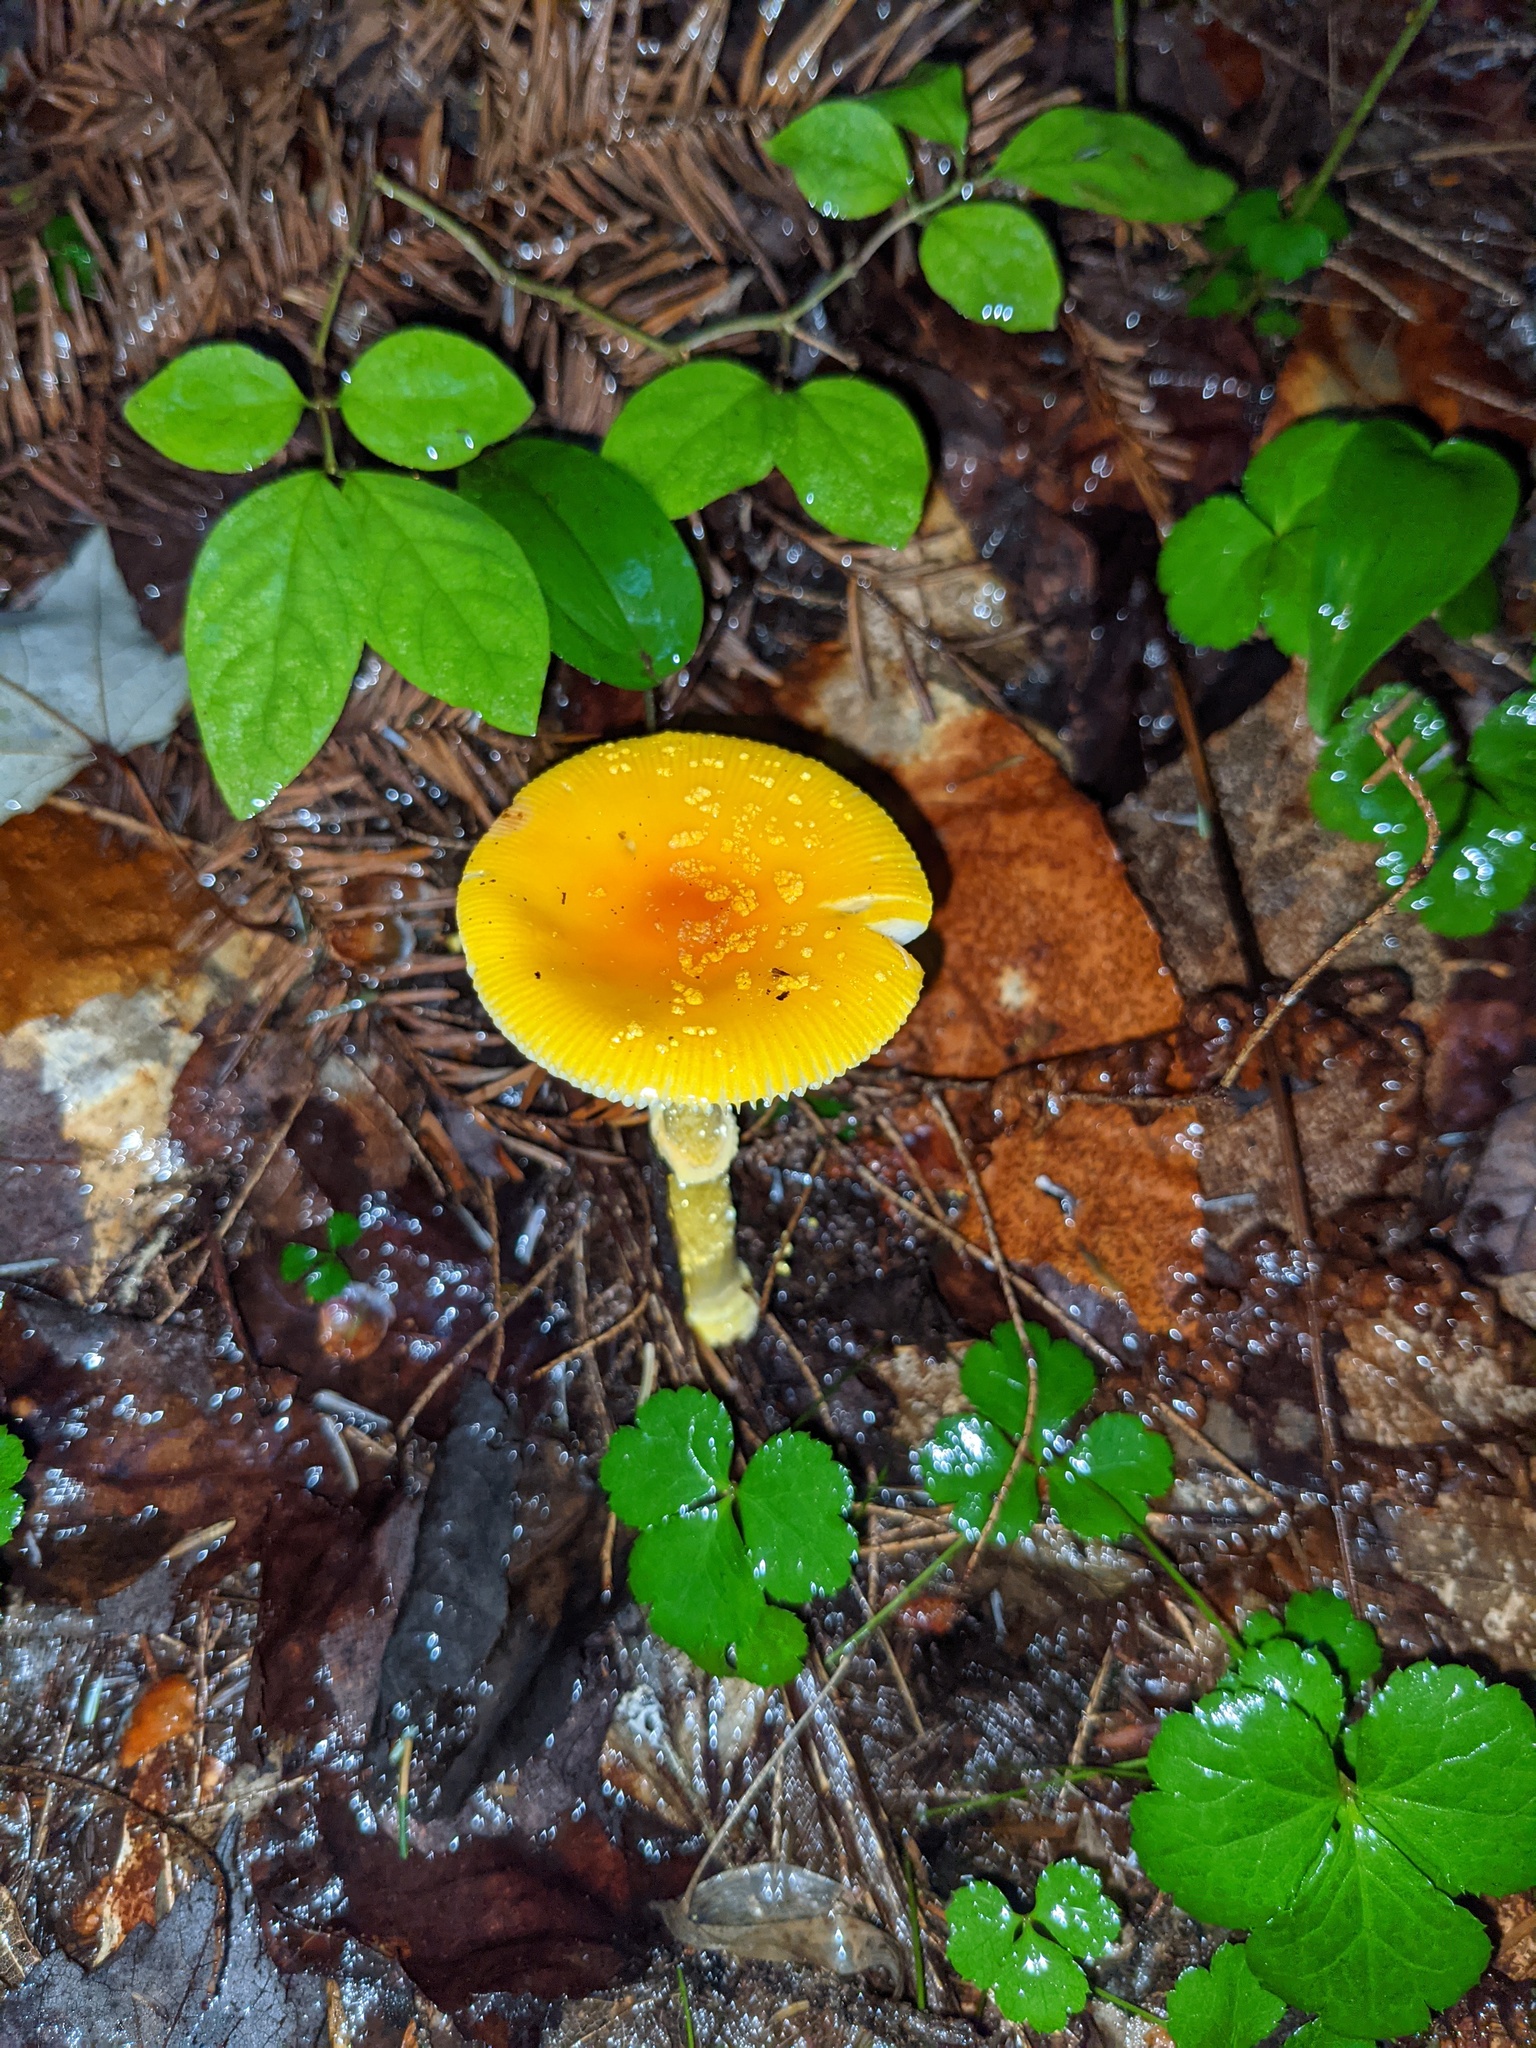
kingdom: Plantae
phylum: Tracheophyta
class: Magnoliopsida
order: Ranunculales
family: Ranunculaceae
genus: Coptis
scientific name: Coptis trifolia
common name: Canker-root
